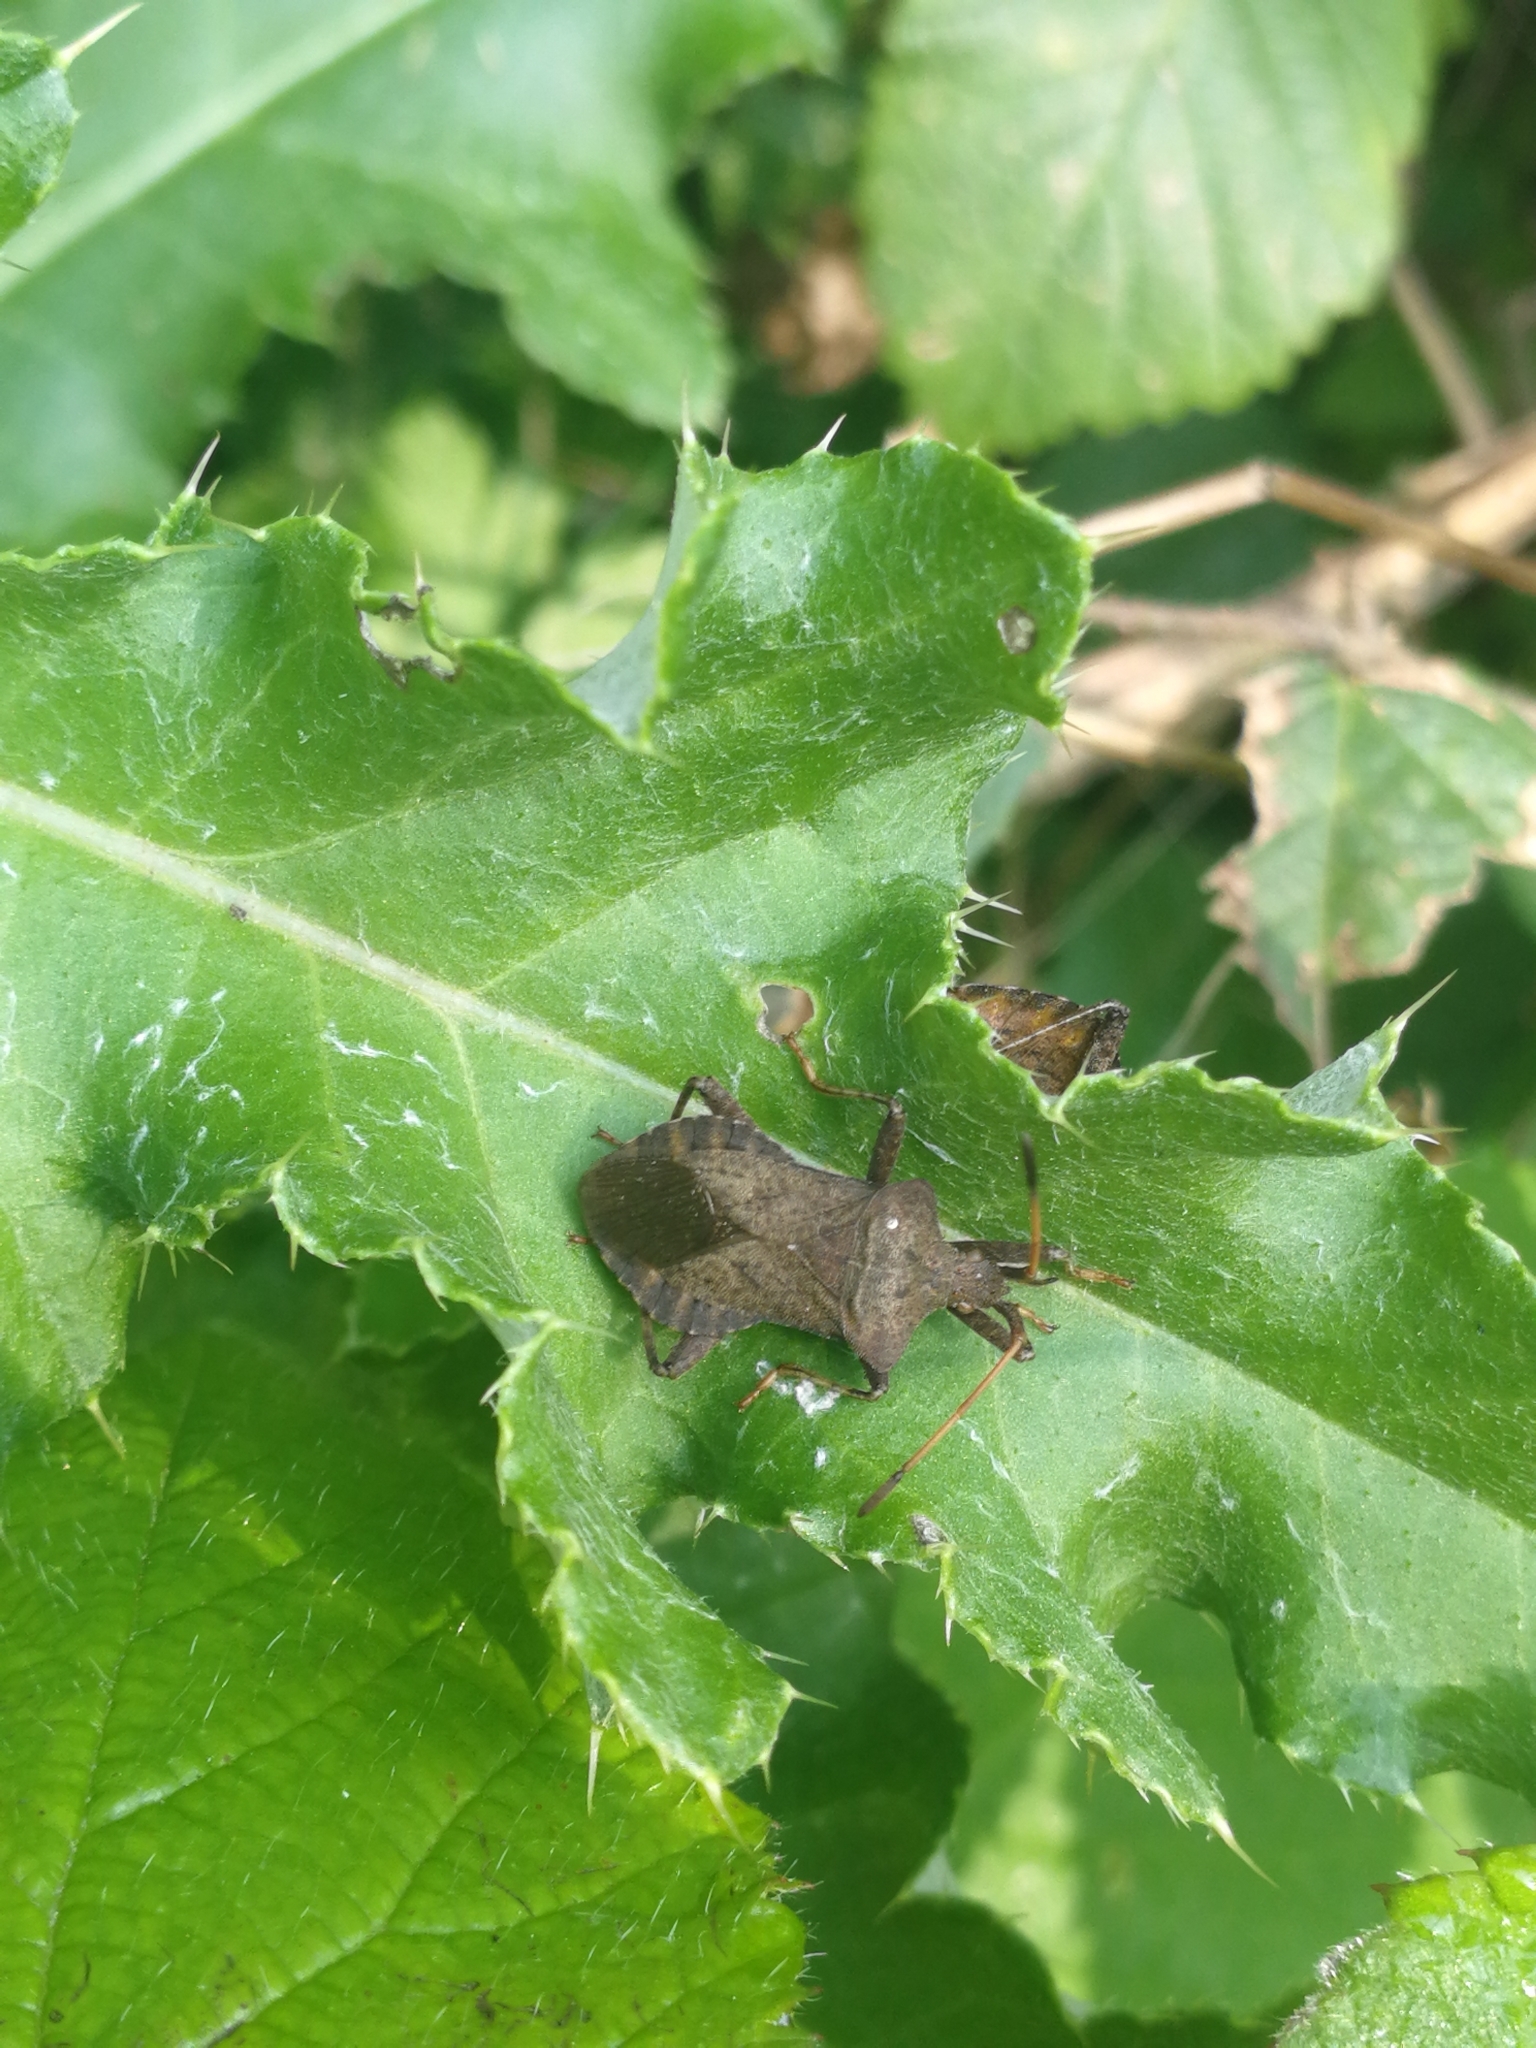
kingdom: Animalia
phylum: Arthropoda
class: Insecta
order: Hemiptera
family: Coreidae
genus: Coreus
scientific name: Coreus marginatus
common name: Dock bug
